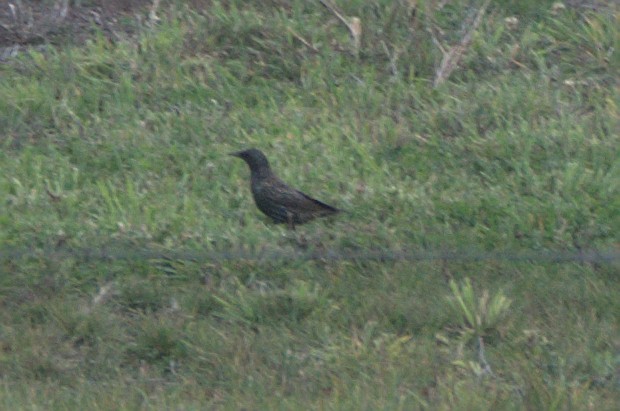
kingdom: Animalia
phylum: Chordata
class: Aves
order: Passeriformes
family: Sturnidae
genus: Sturnus
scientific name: Sturnus vulgaris
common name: Common starling
